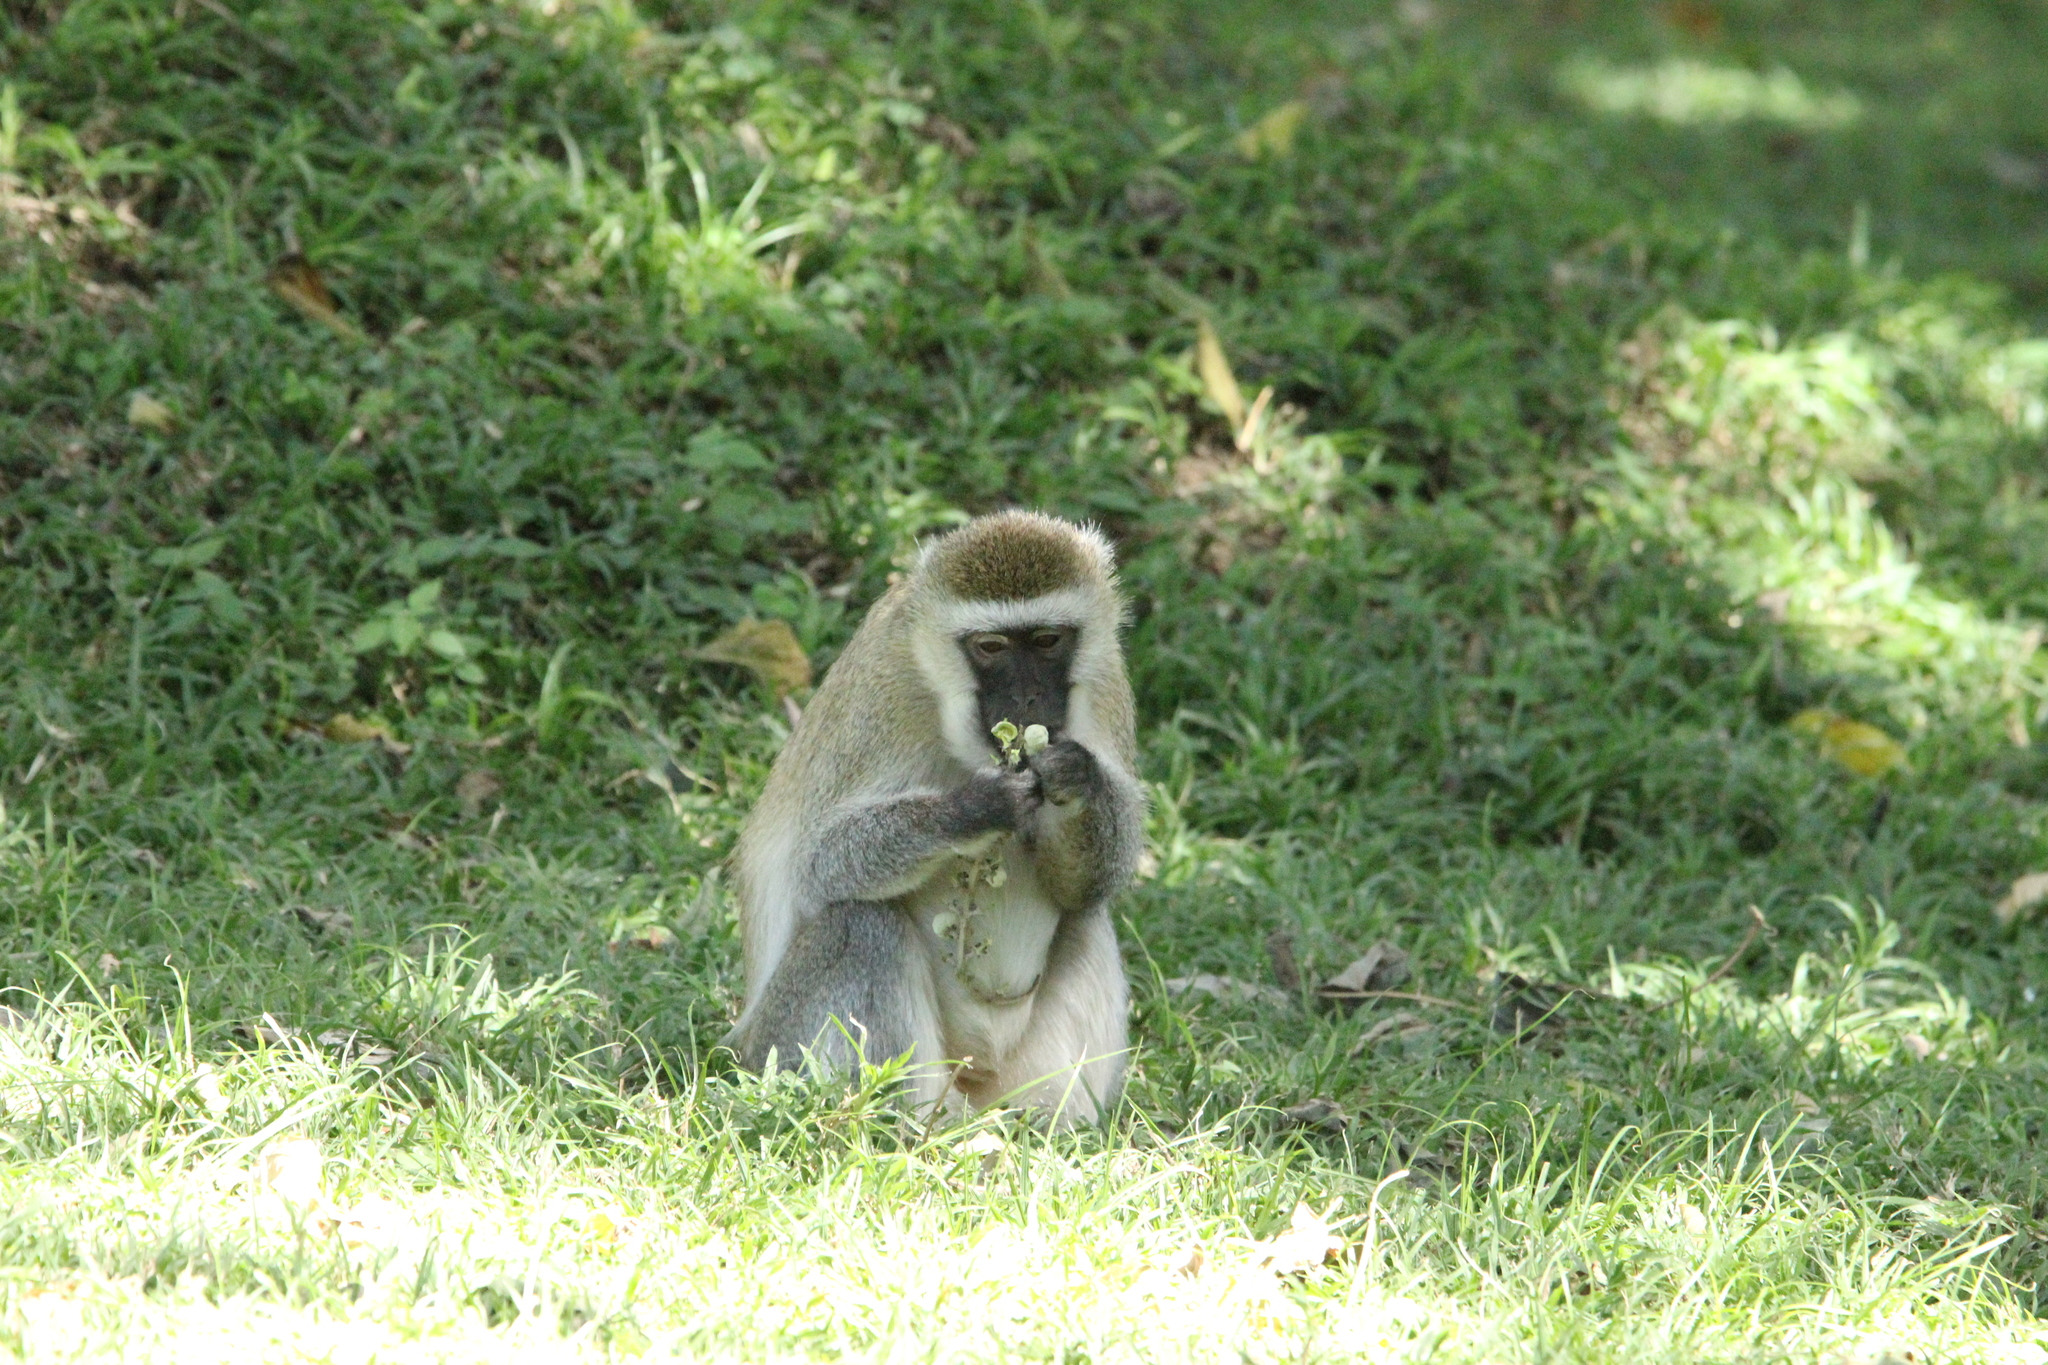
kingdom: Animalia
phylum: Chordata
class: Mammalia
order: Primates
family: Cercopithecidae
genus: Chlorocebus
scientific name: Chlorocebus pygerythrus
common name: Vervet monkey
